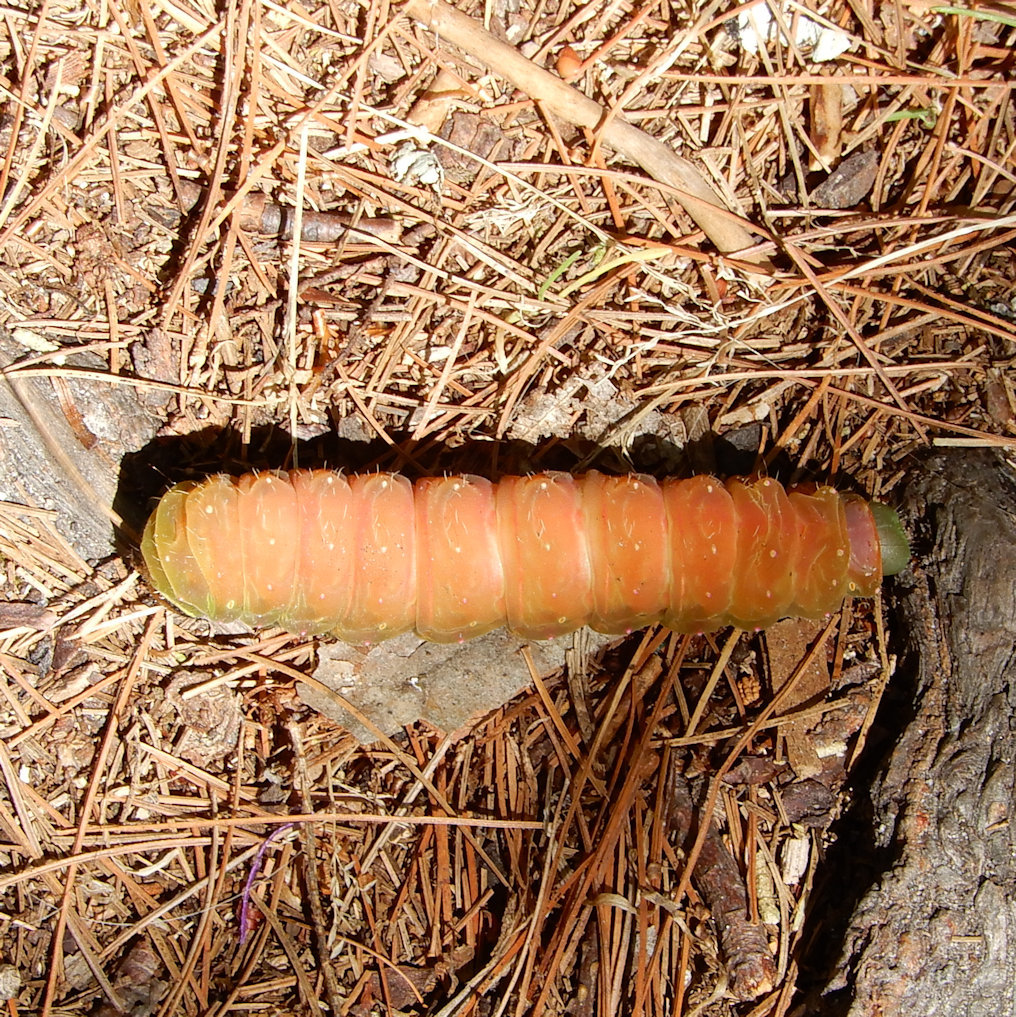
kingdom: Animalia
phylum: Arthropoda
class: Insecta
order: Lepidoptera
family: Saturniidae
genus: Actias
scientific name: Actias luna
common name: Luna moth
